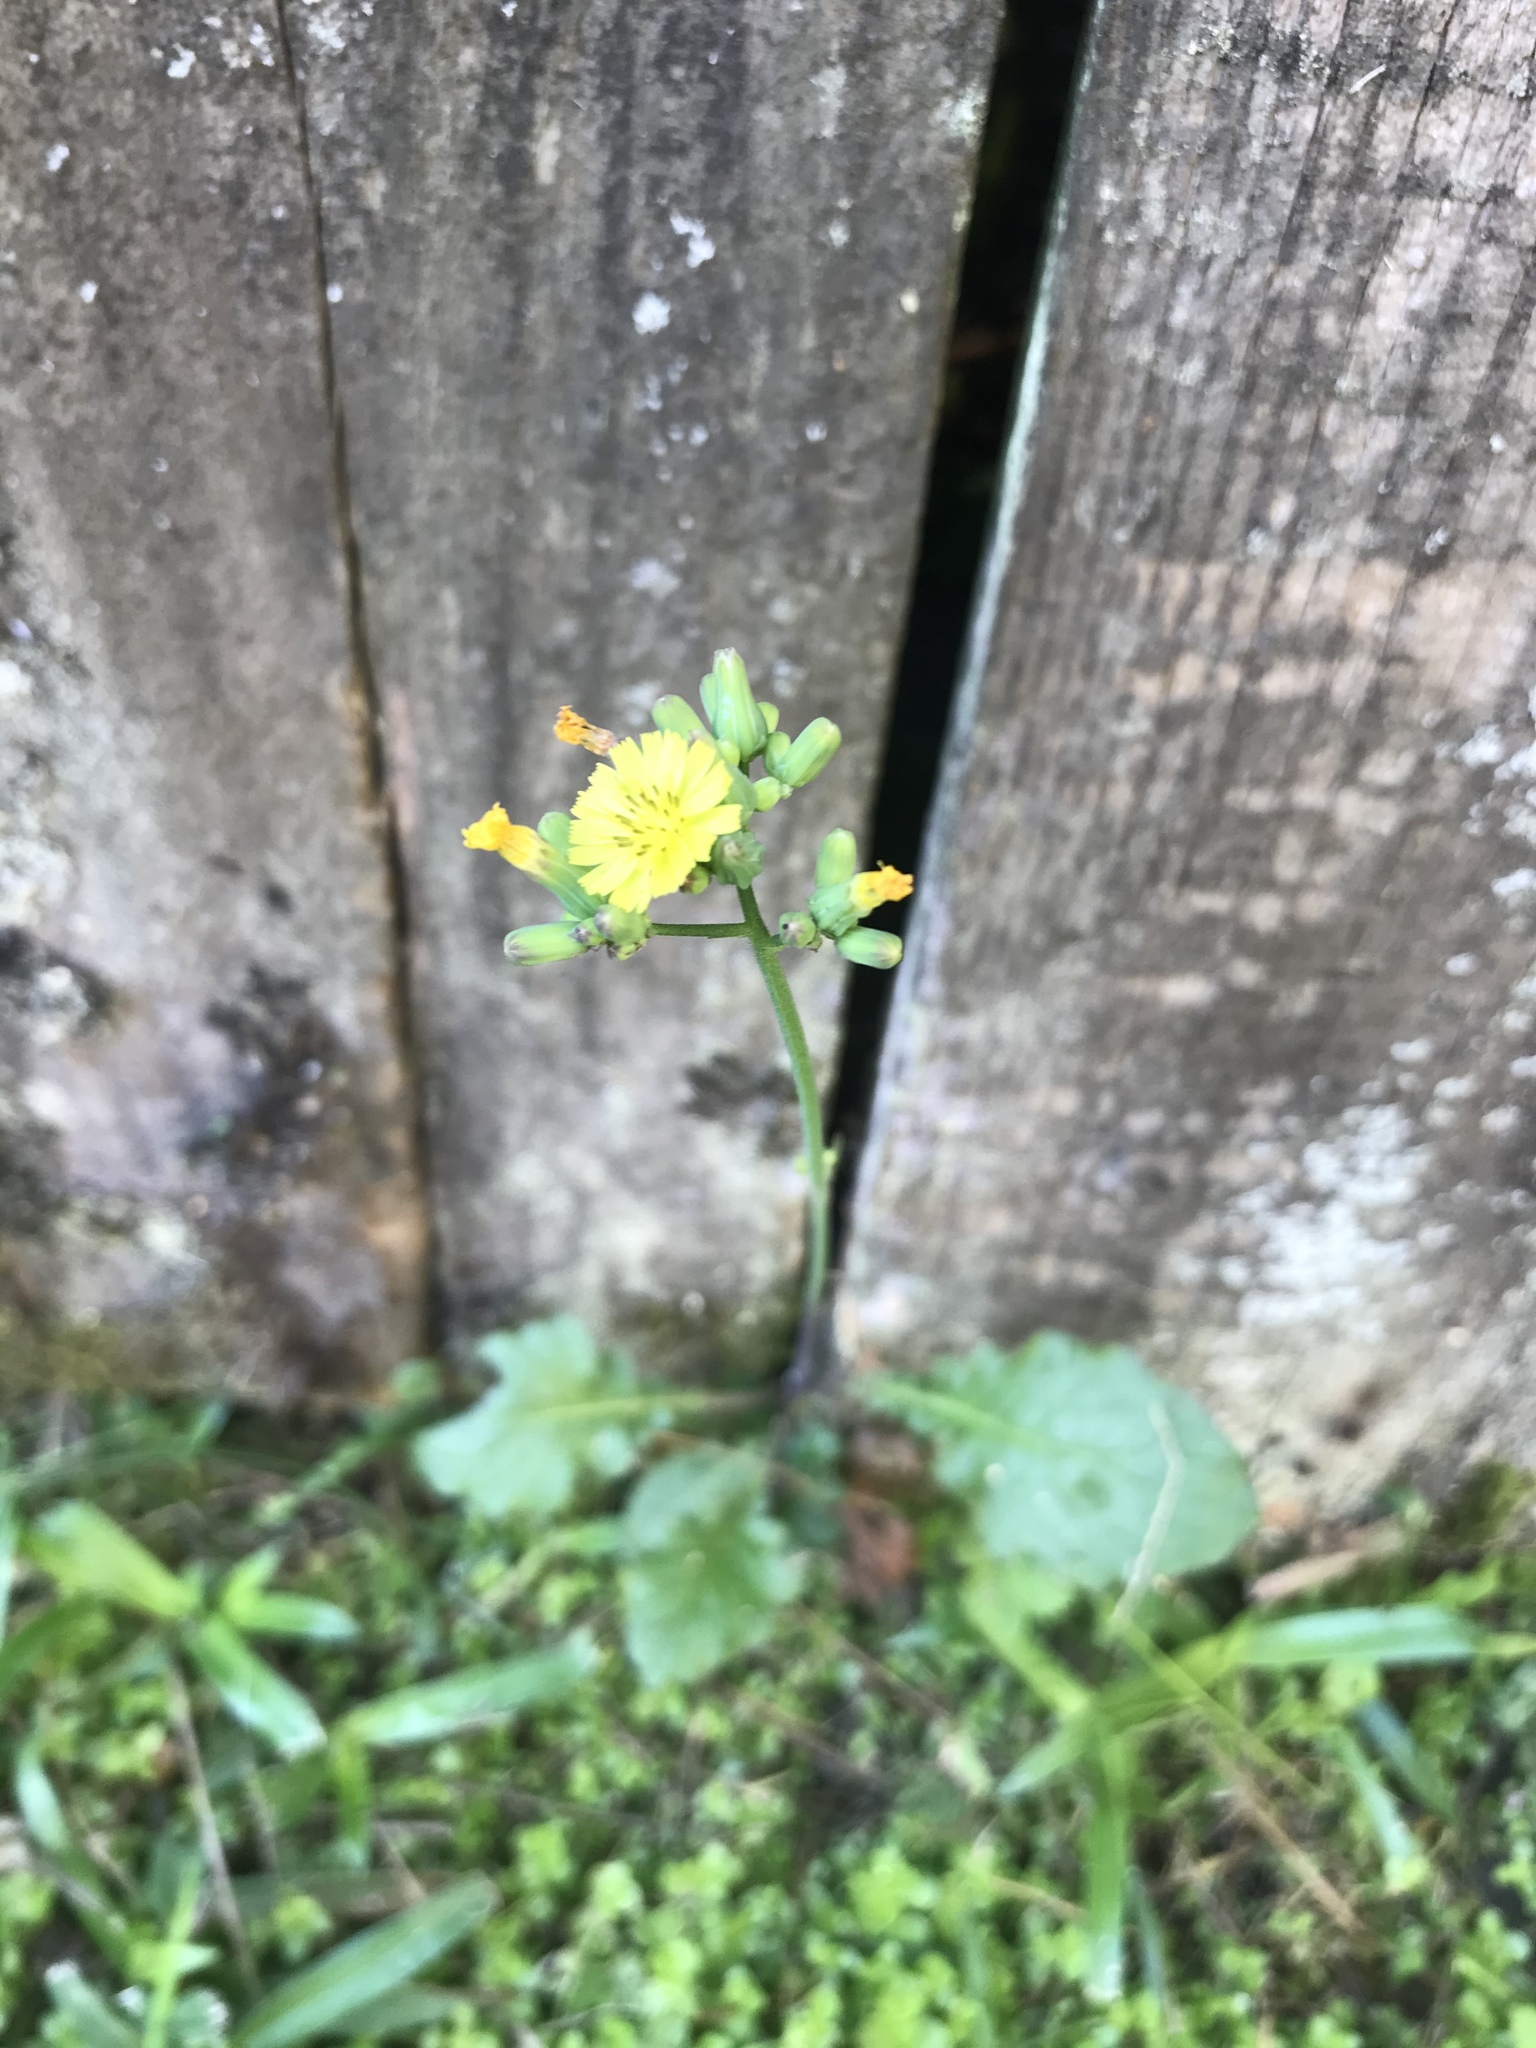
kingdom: Plantae
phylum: Tracheophyta
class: Magnoliopsida
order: Asterales
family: Asteraceae
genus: Youngia
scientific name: Youngia japonica
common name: Oriental false hawksbeard
